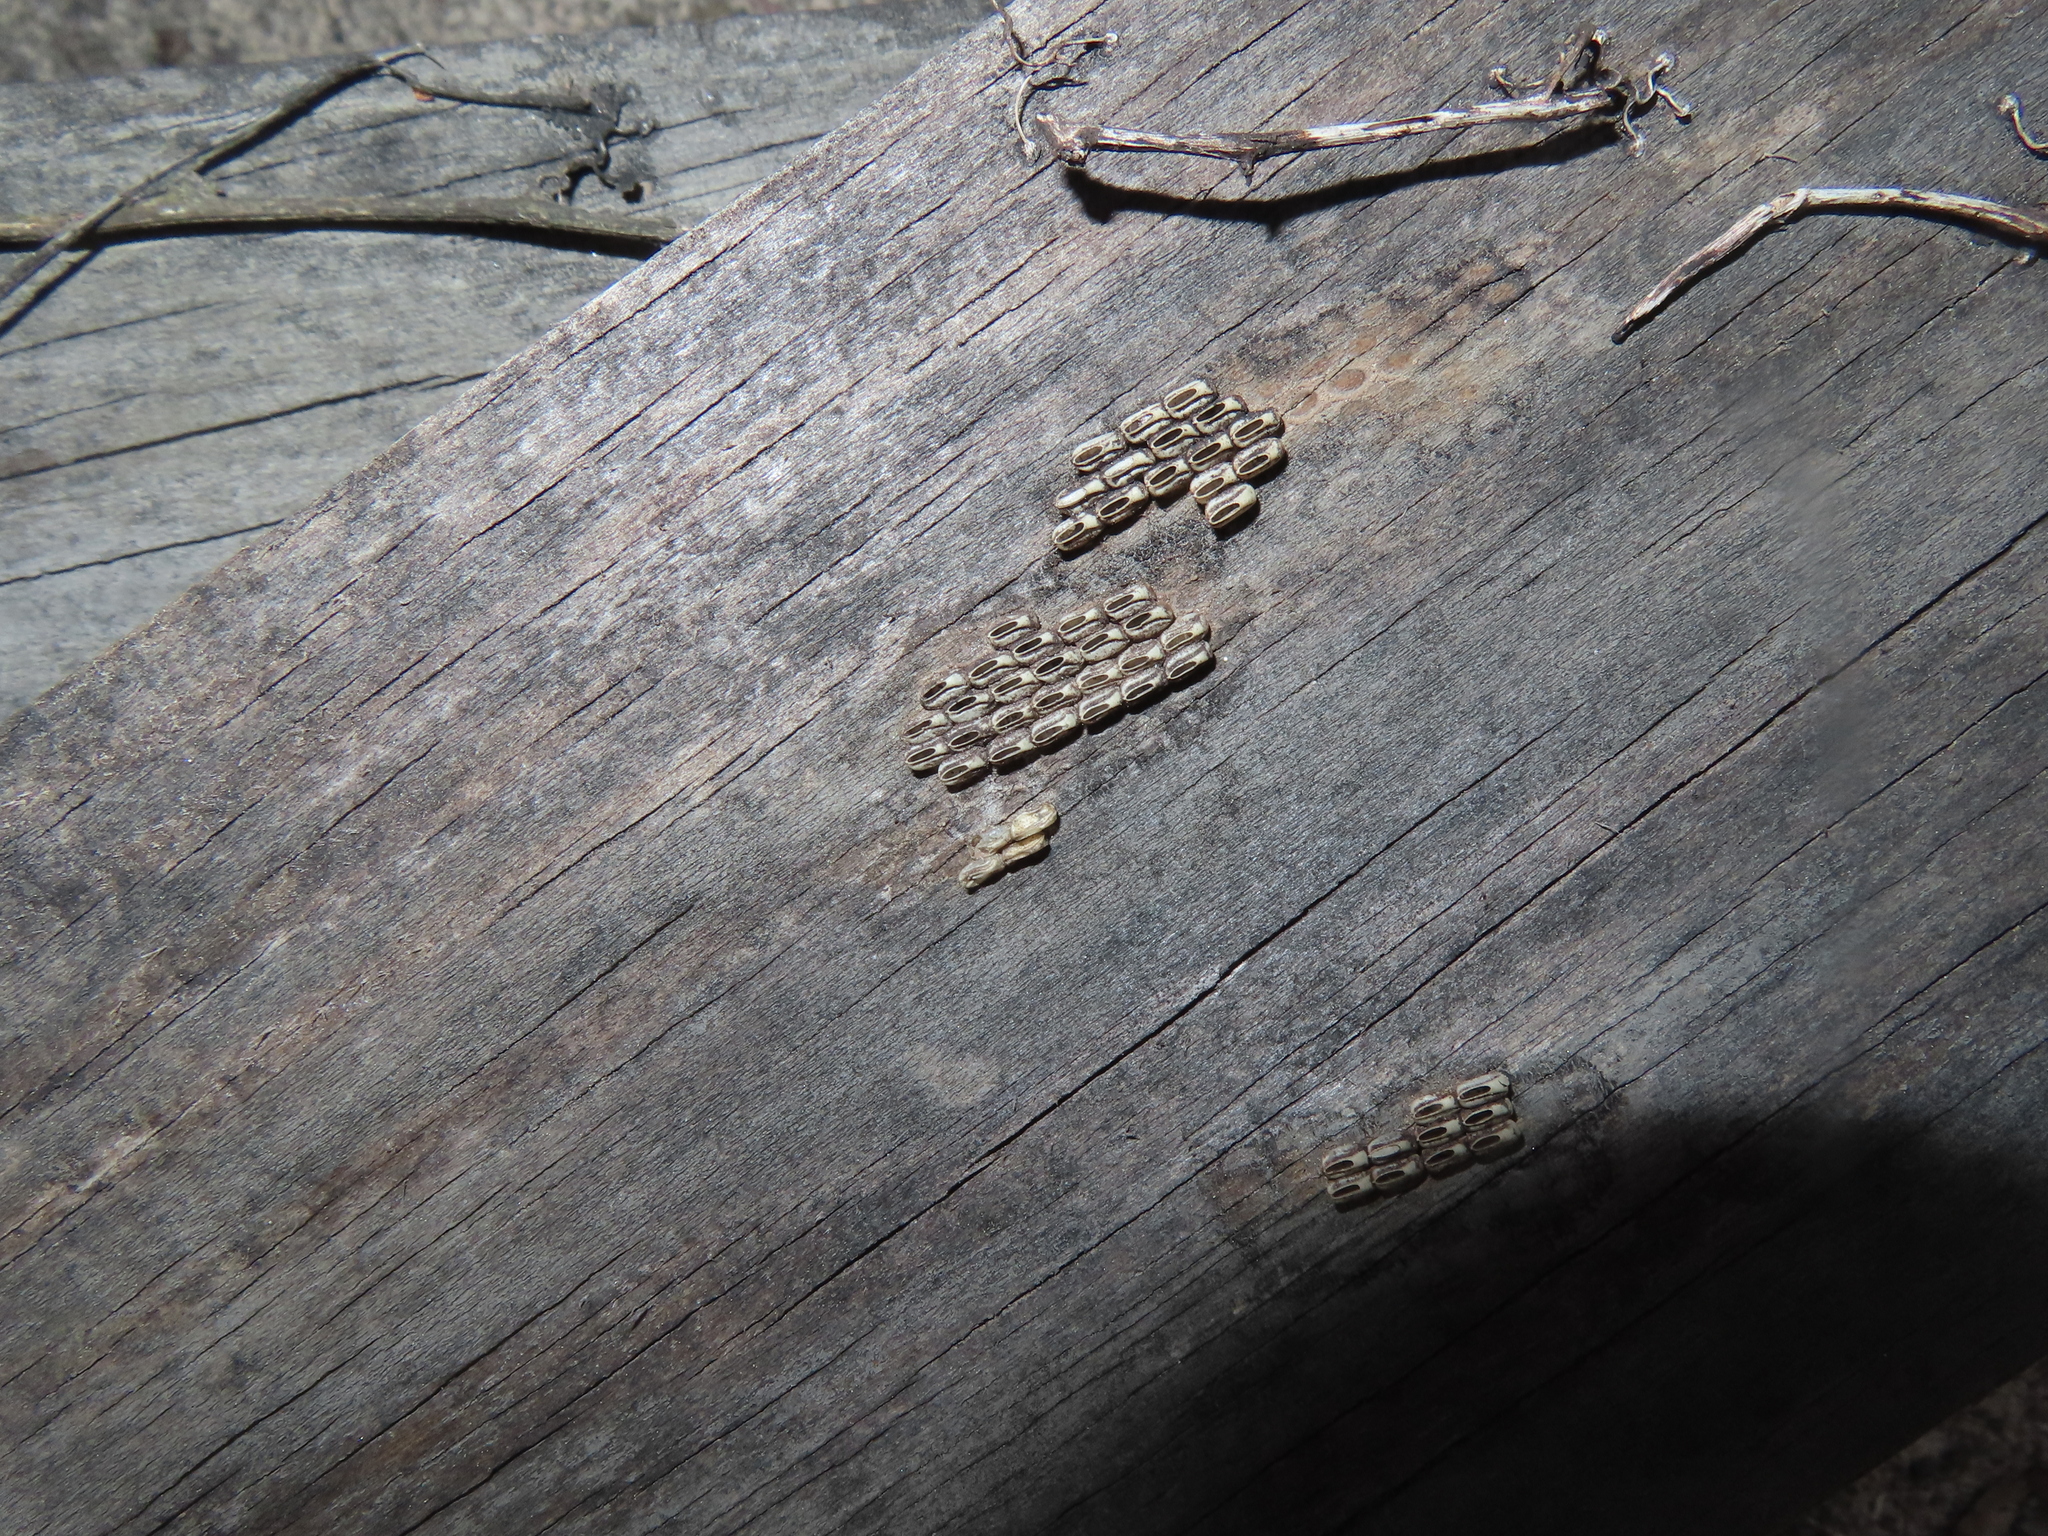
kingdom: Animalia
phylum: Arthropoda
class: Insecta
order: Hemiptera
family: Fulgoridae
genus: Lycorma
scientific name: Lycorma delicatula
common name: Spotted lanternfly
